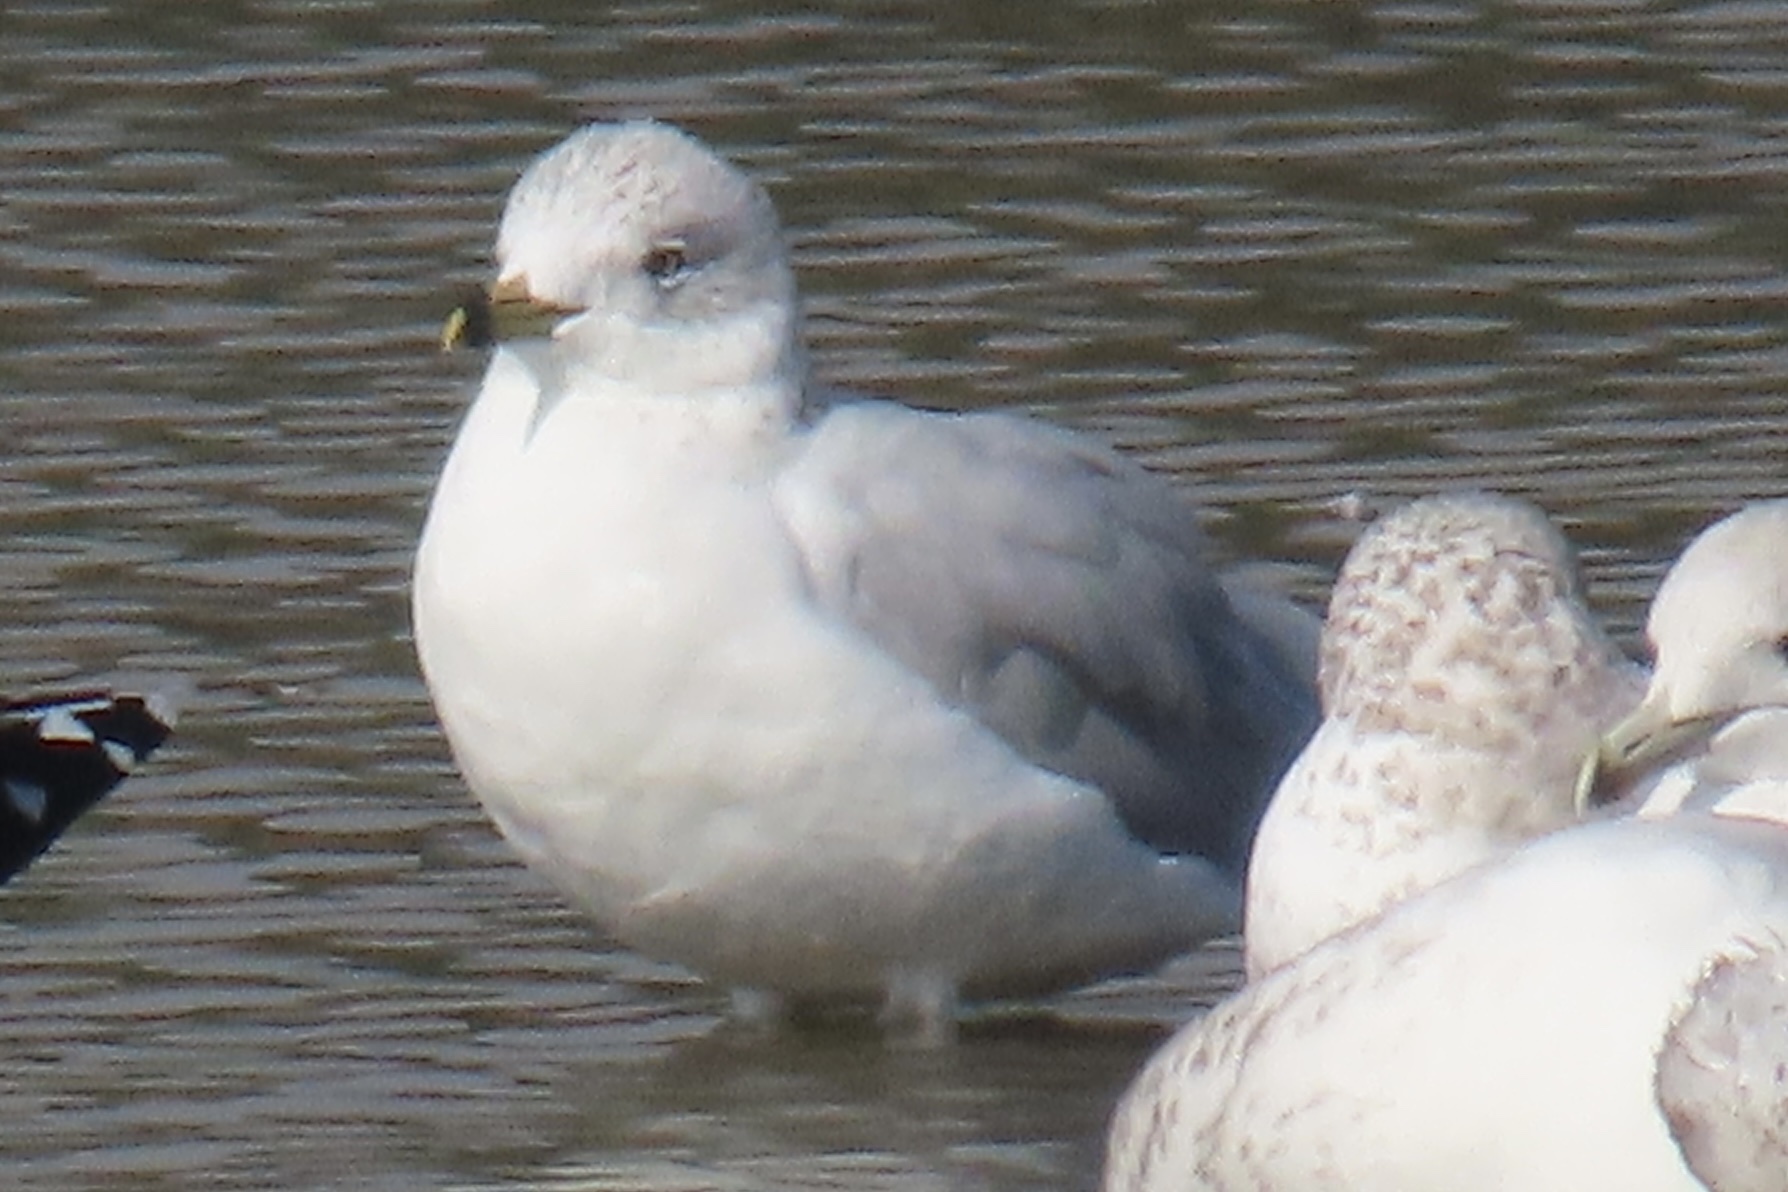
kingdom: Animalia
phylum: Chordata
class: Aves
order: Charadriiformes
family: Laridae
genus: Larus
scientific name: Larus delawarensis
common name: Ring-billed gull
